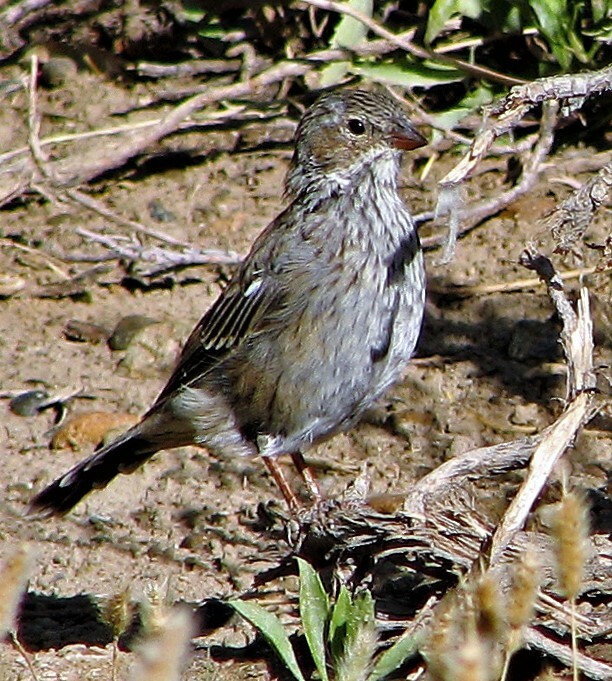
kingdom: Animalia
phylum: Chordata
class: Aves
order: Passeriformes
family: Thraupidae
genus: Rhopospina
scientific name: Rhopospina fruticeti
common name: Mourning sierra finch
